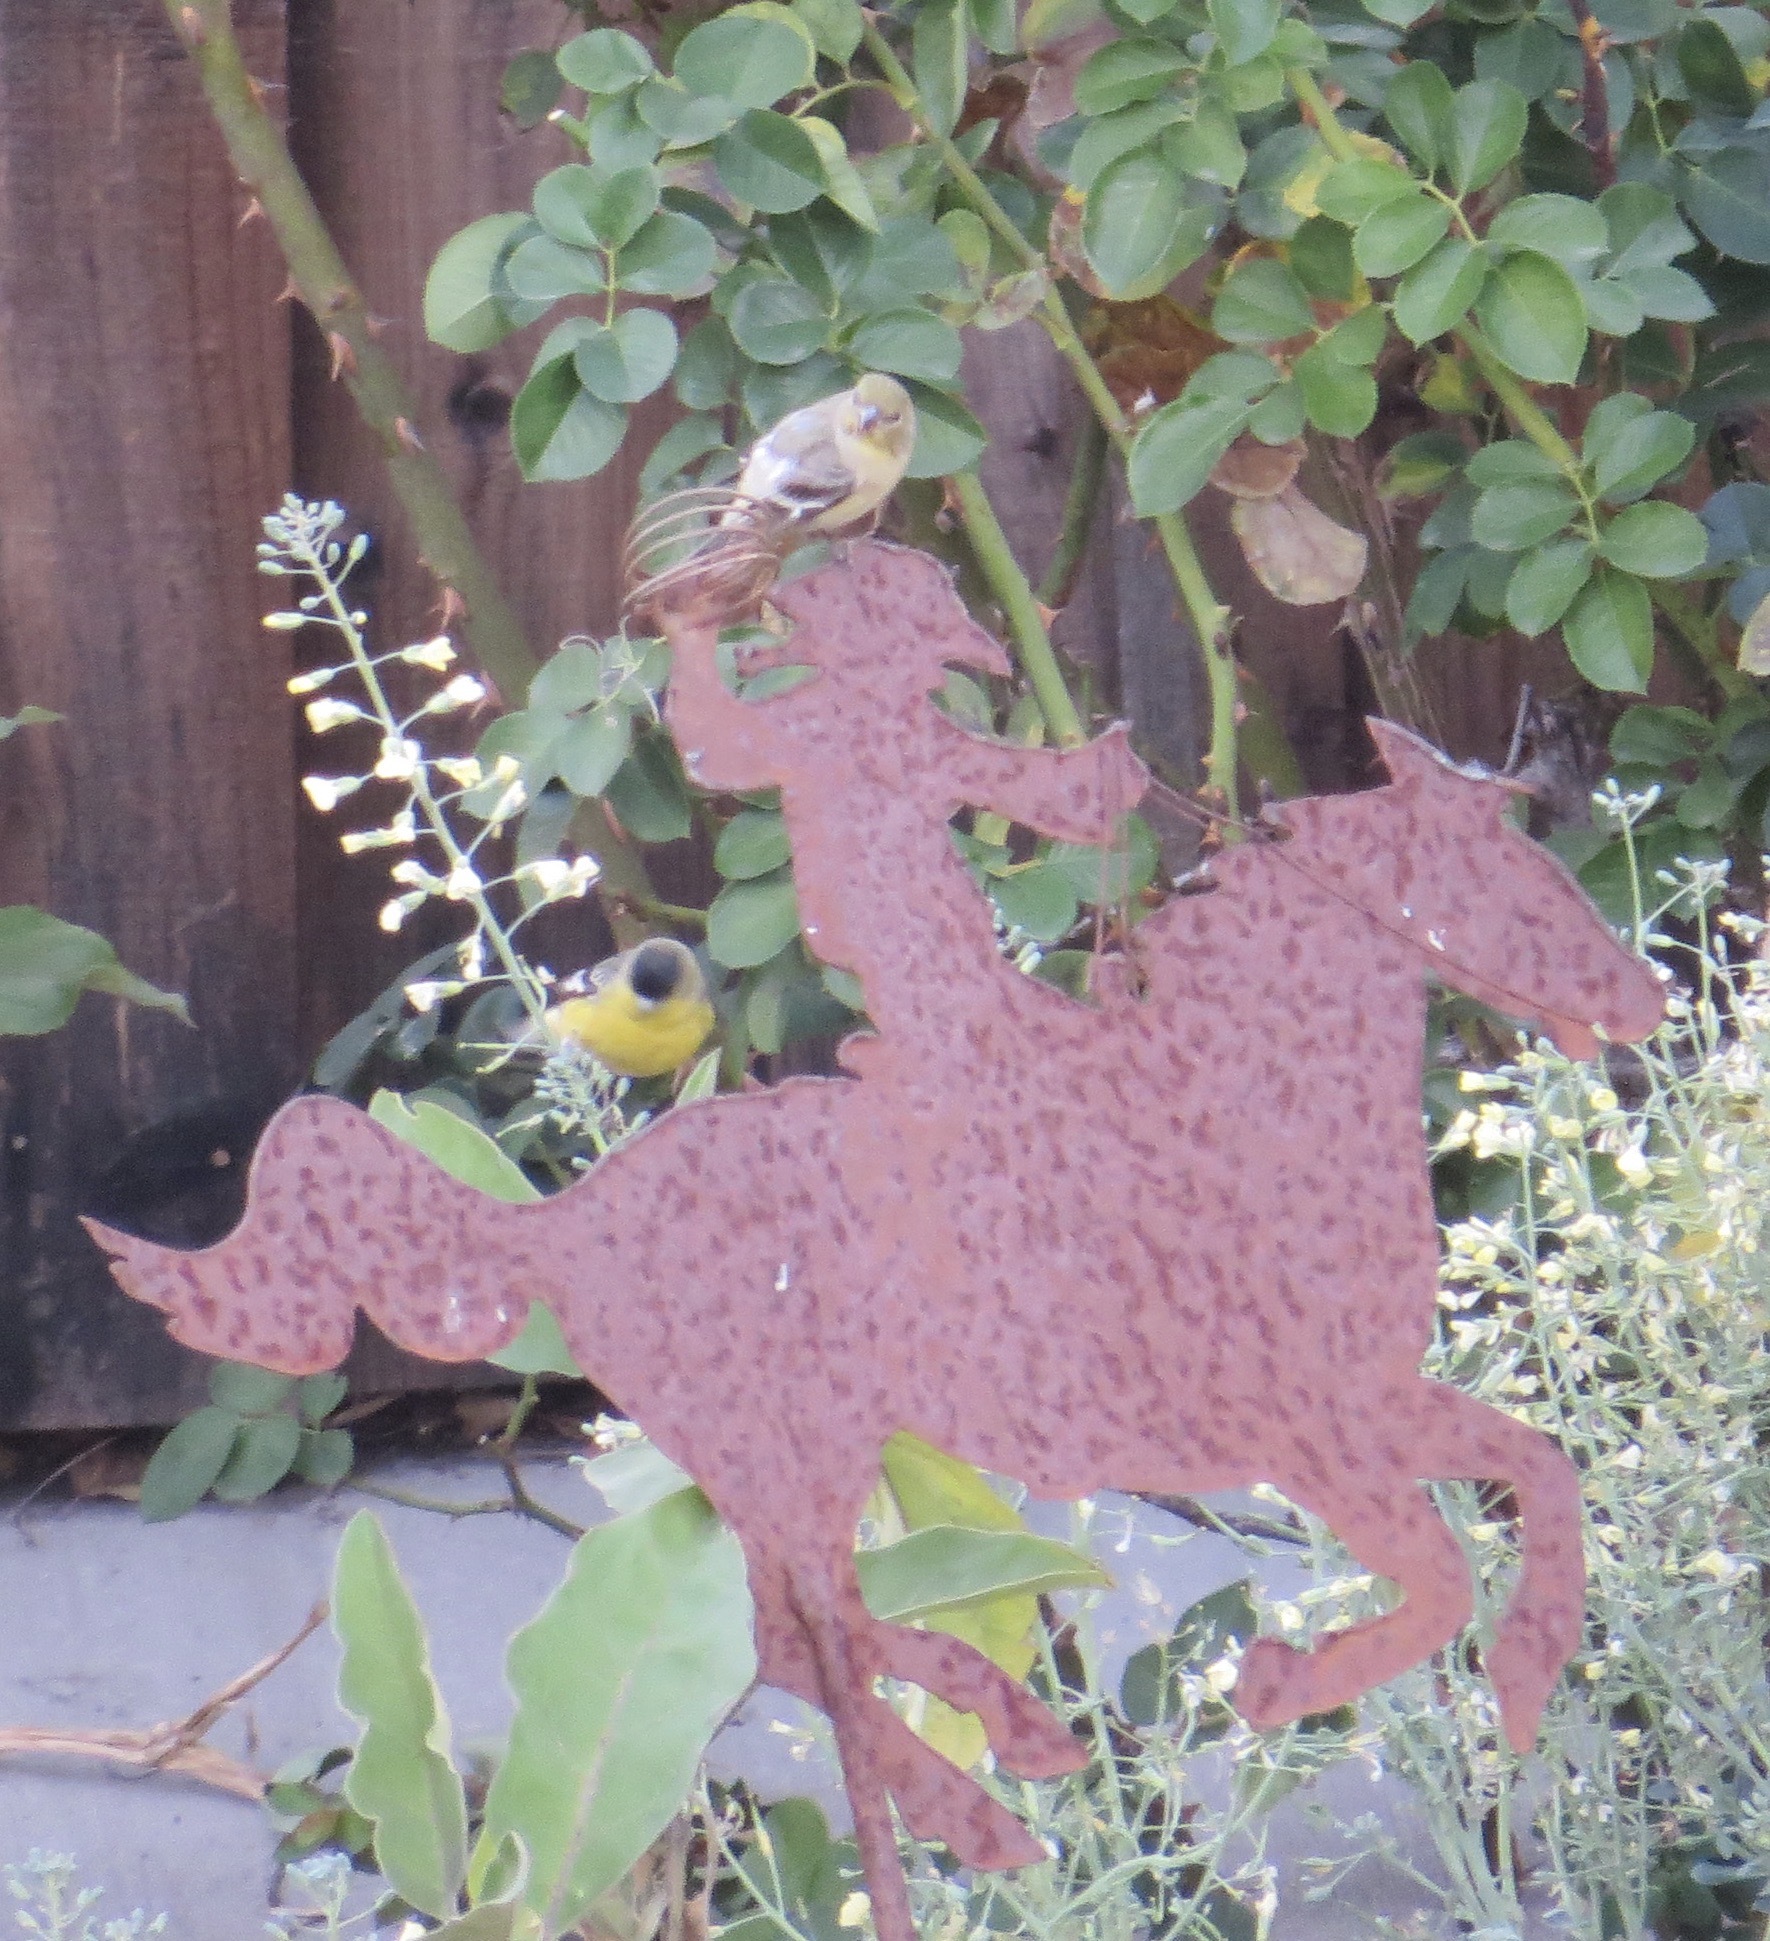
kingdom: Animalia
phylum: Chordata
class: Aves
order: Passeriformes
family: Fringillidae
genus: Spinus
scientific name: Spinus psaltria
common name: Lesser goldfinch
